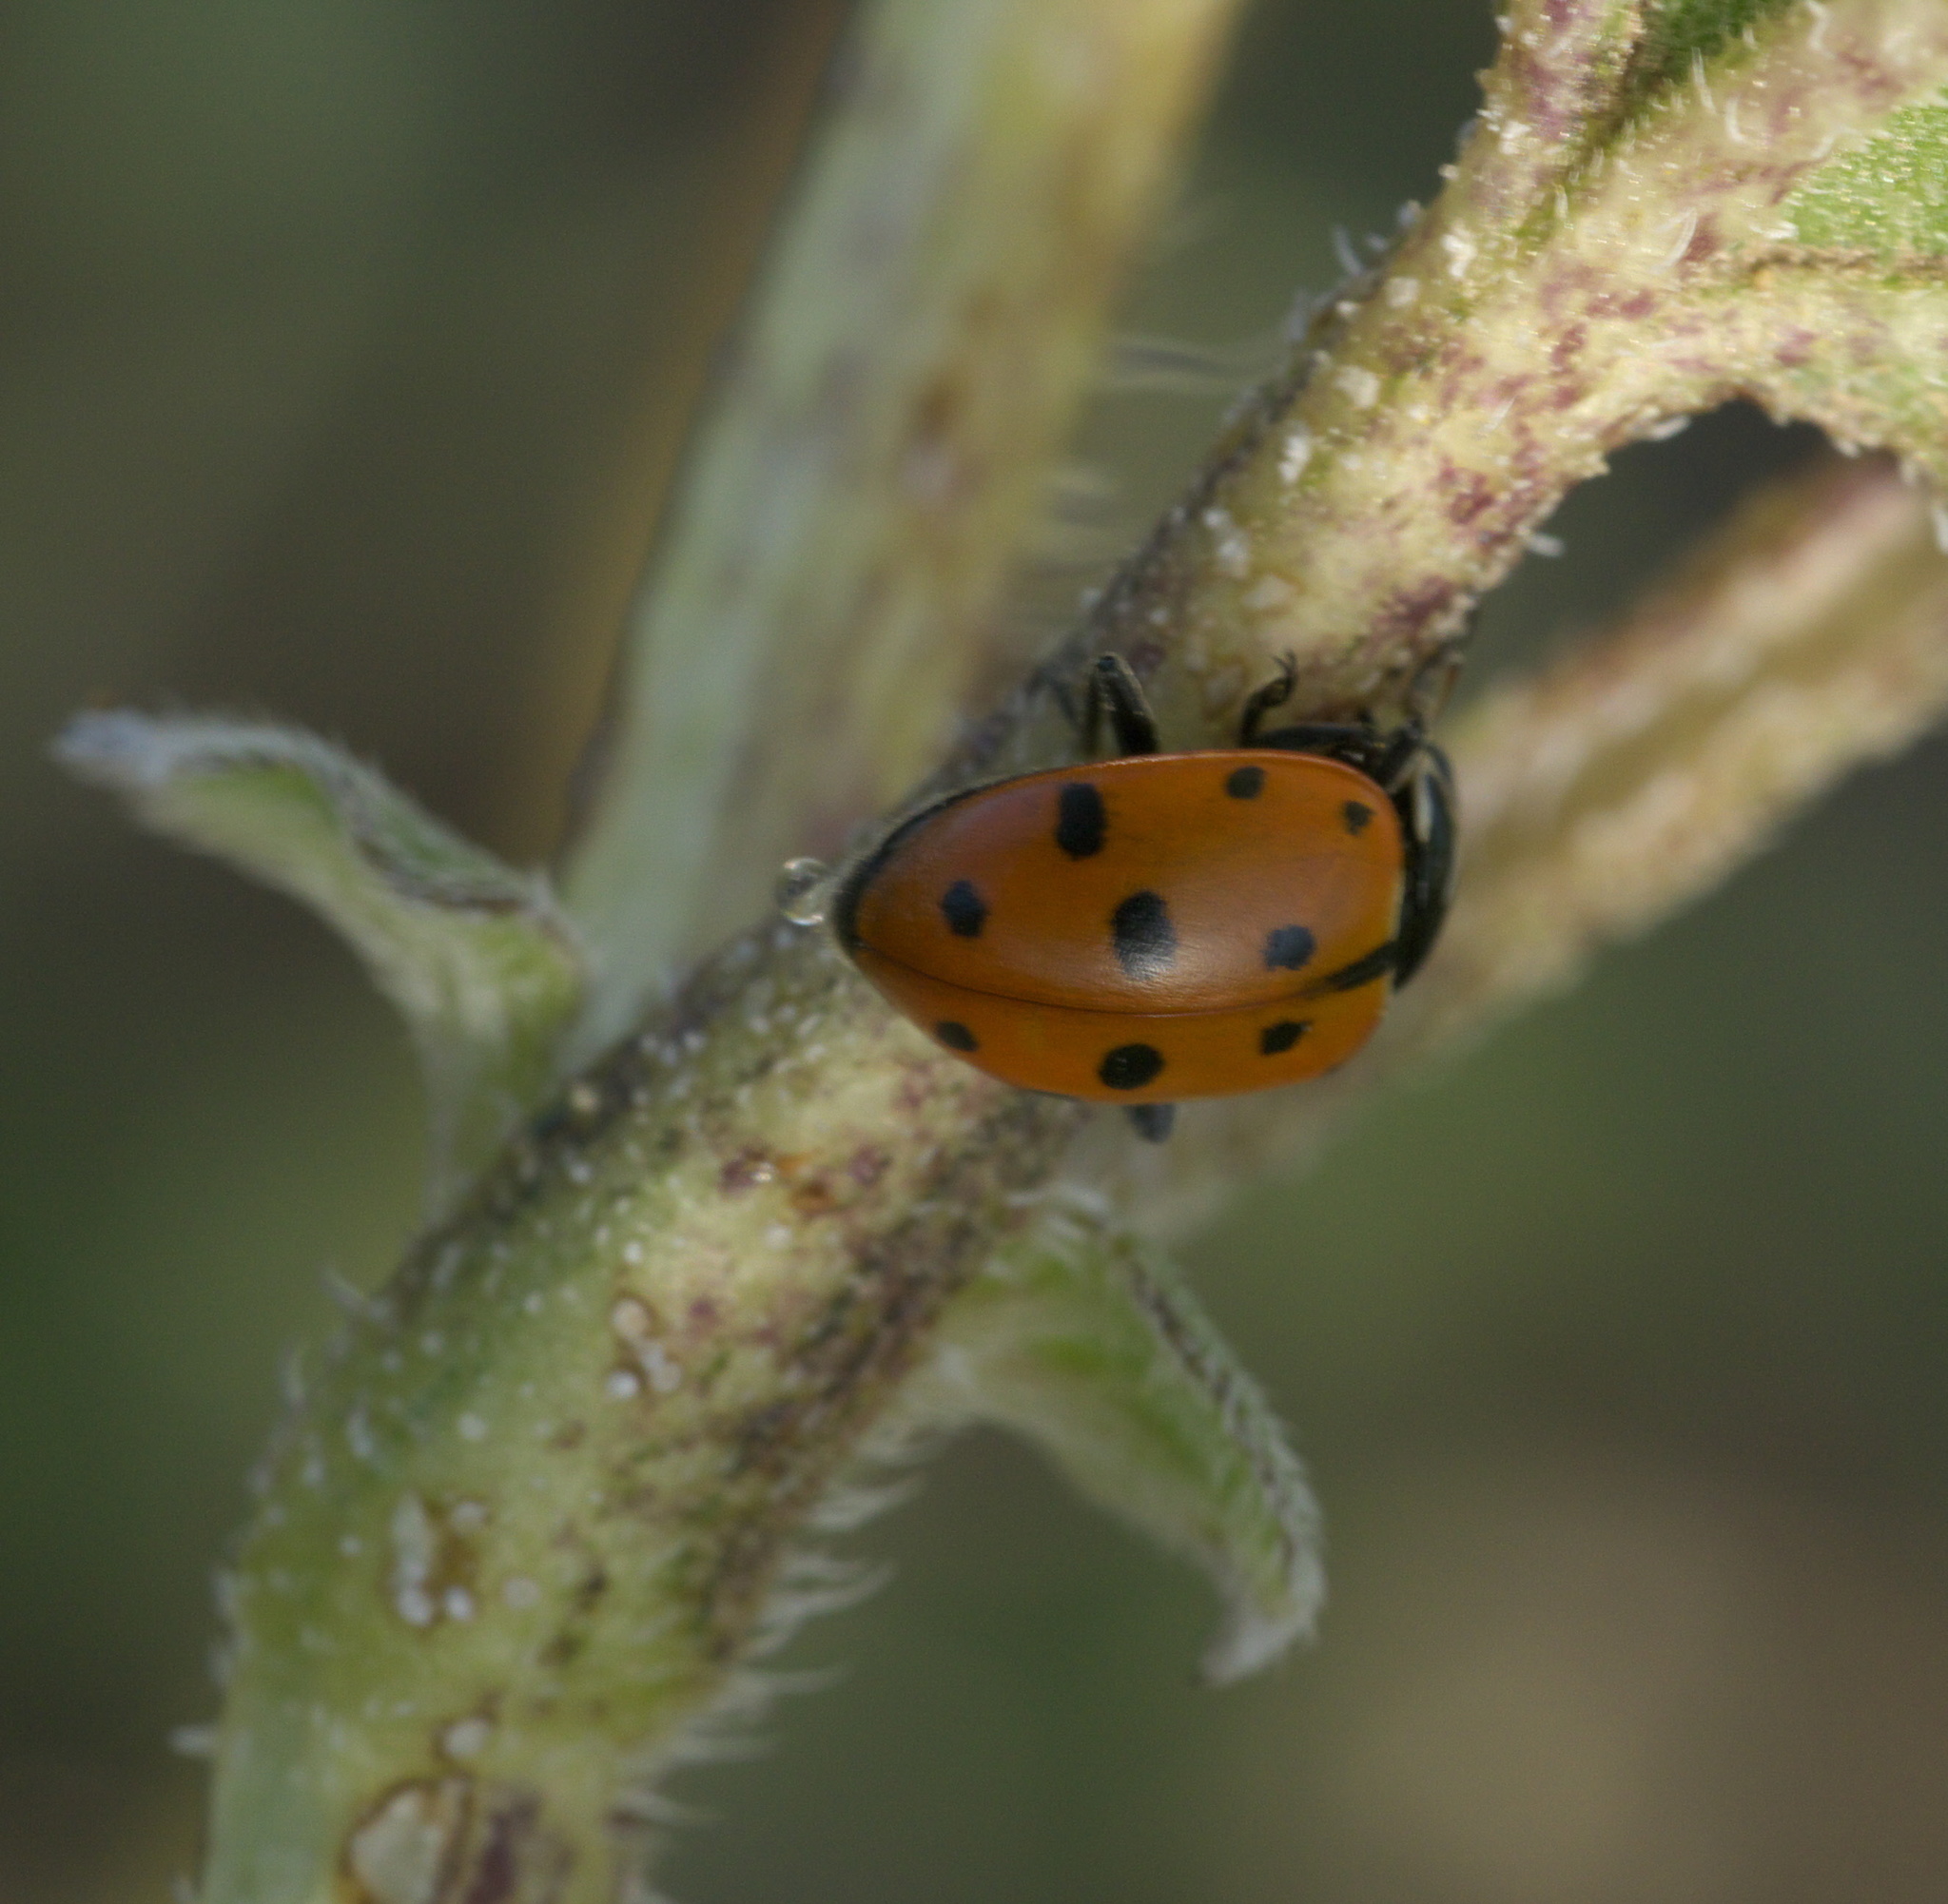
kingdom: Animalia
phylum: Arthropoda
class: Insecta
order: Coleoptera
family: Coccinellidae
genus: Hippodamia
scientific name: Hippodamia convergens
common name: Convergent lady beetle
